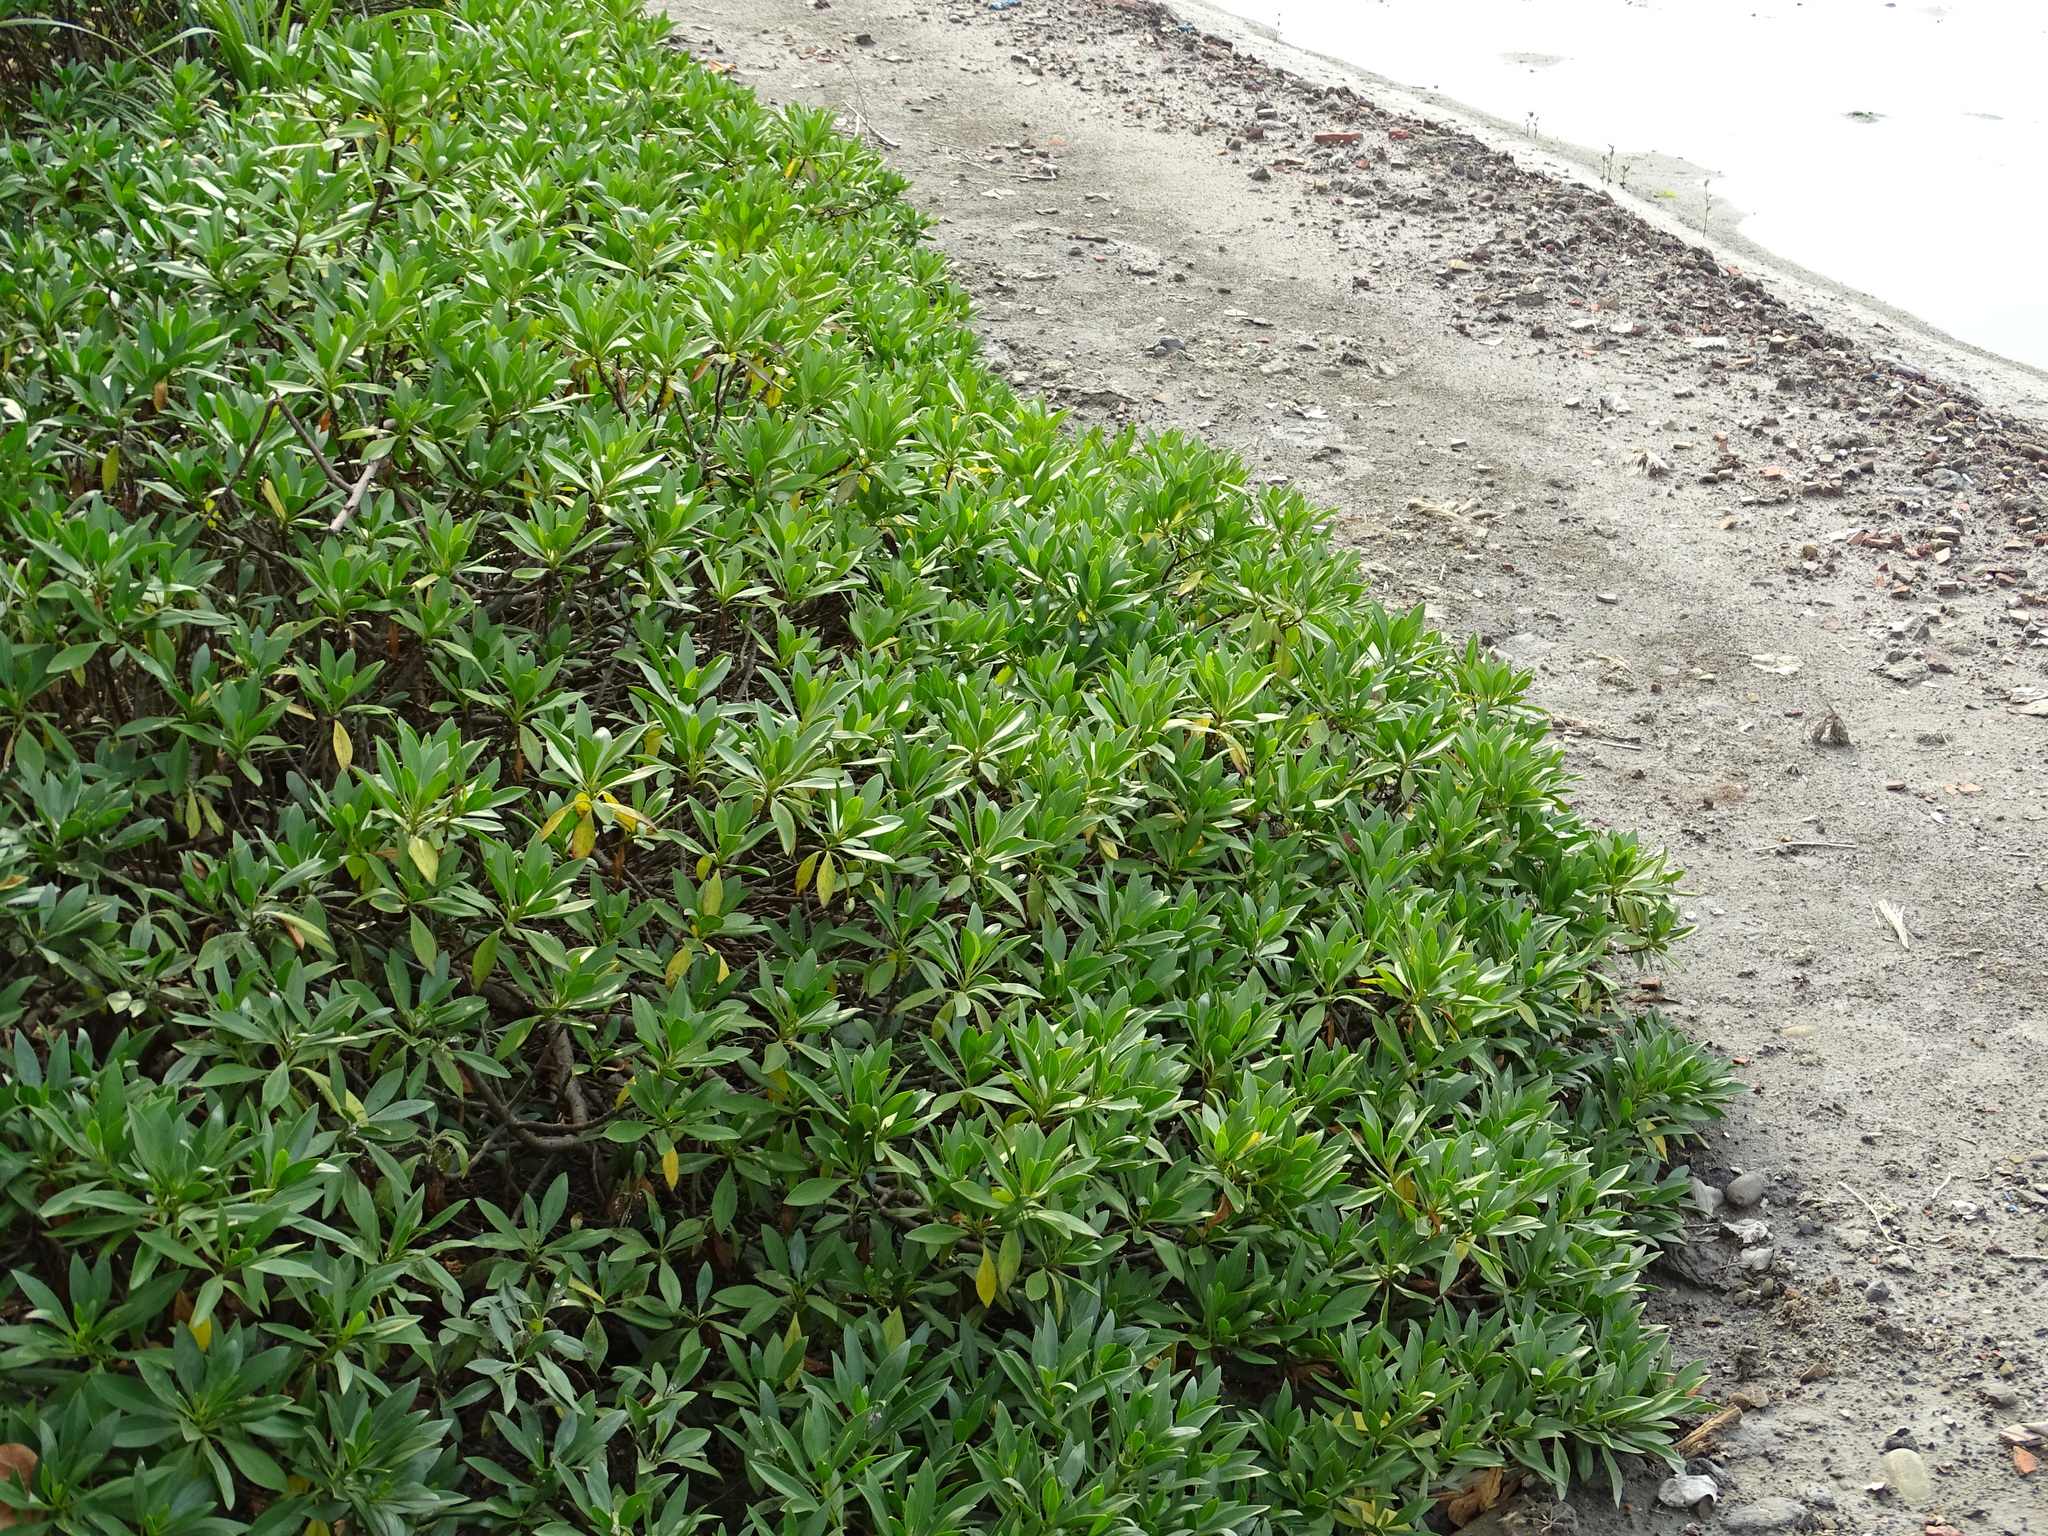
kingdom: Plantae
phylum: Tracheophyta
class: Magnoliopsida
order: Lamiales
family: Scrophulariaceae
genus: Myoporum
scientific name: Myoporum bontioides
